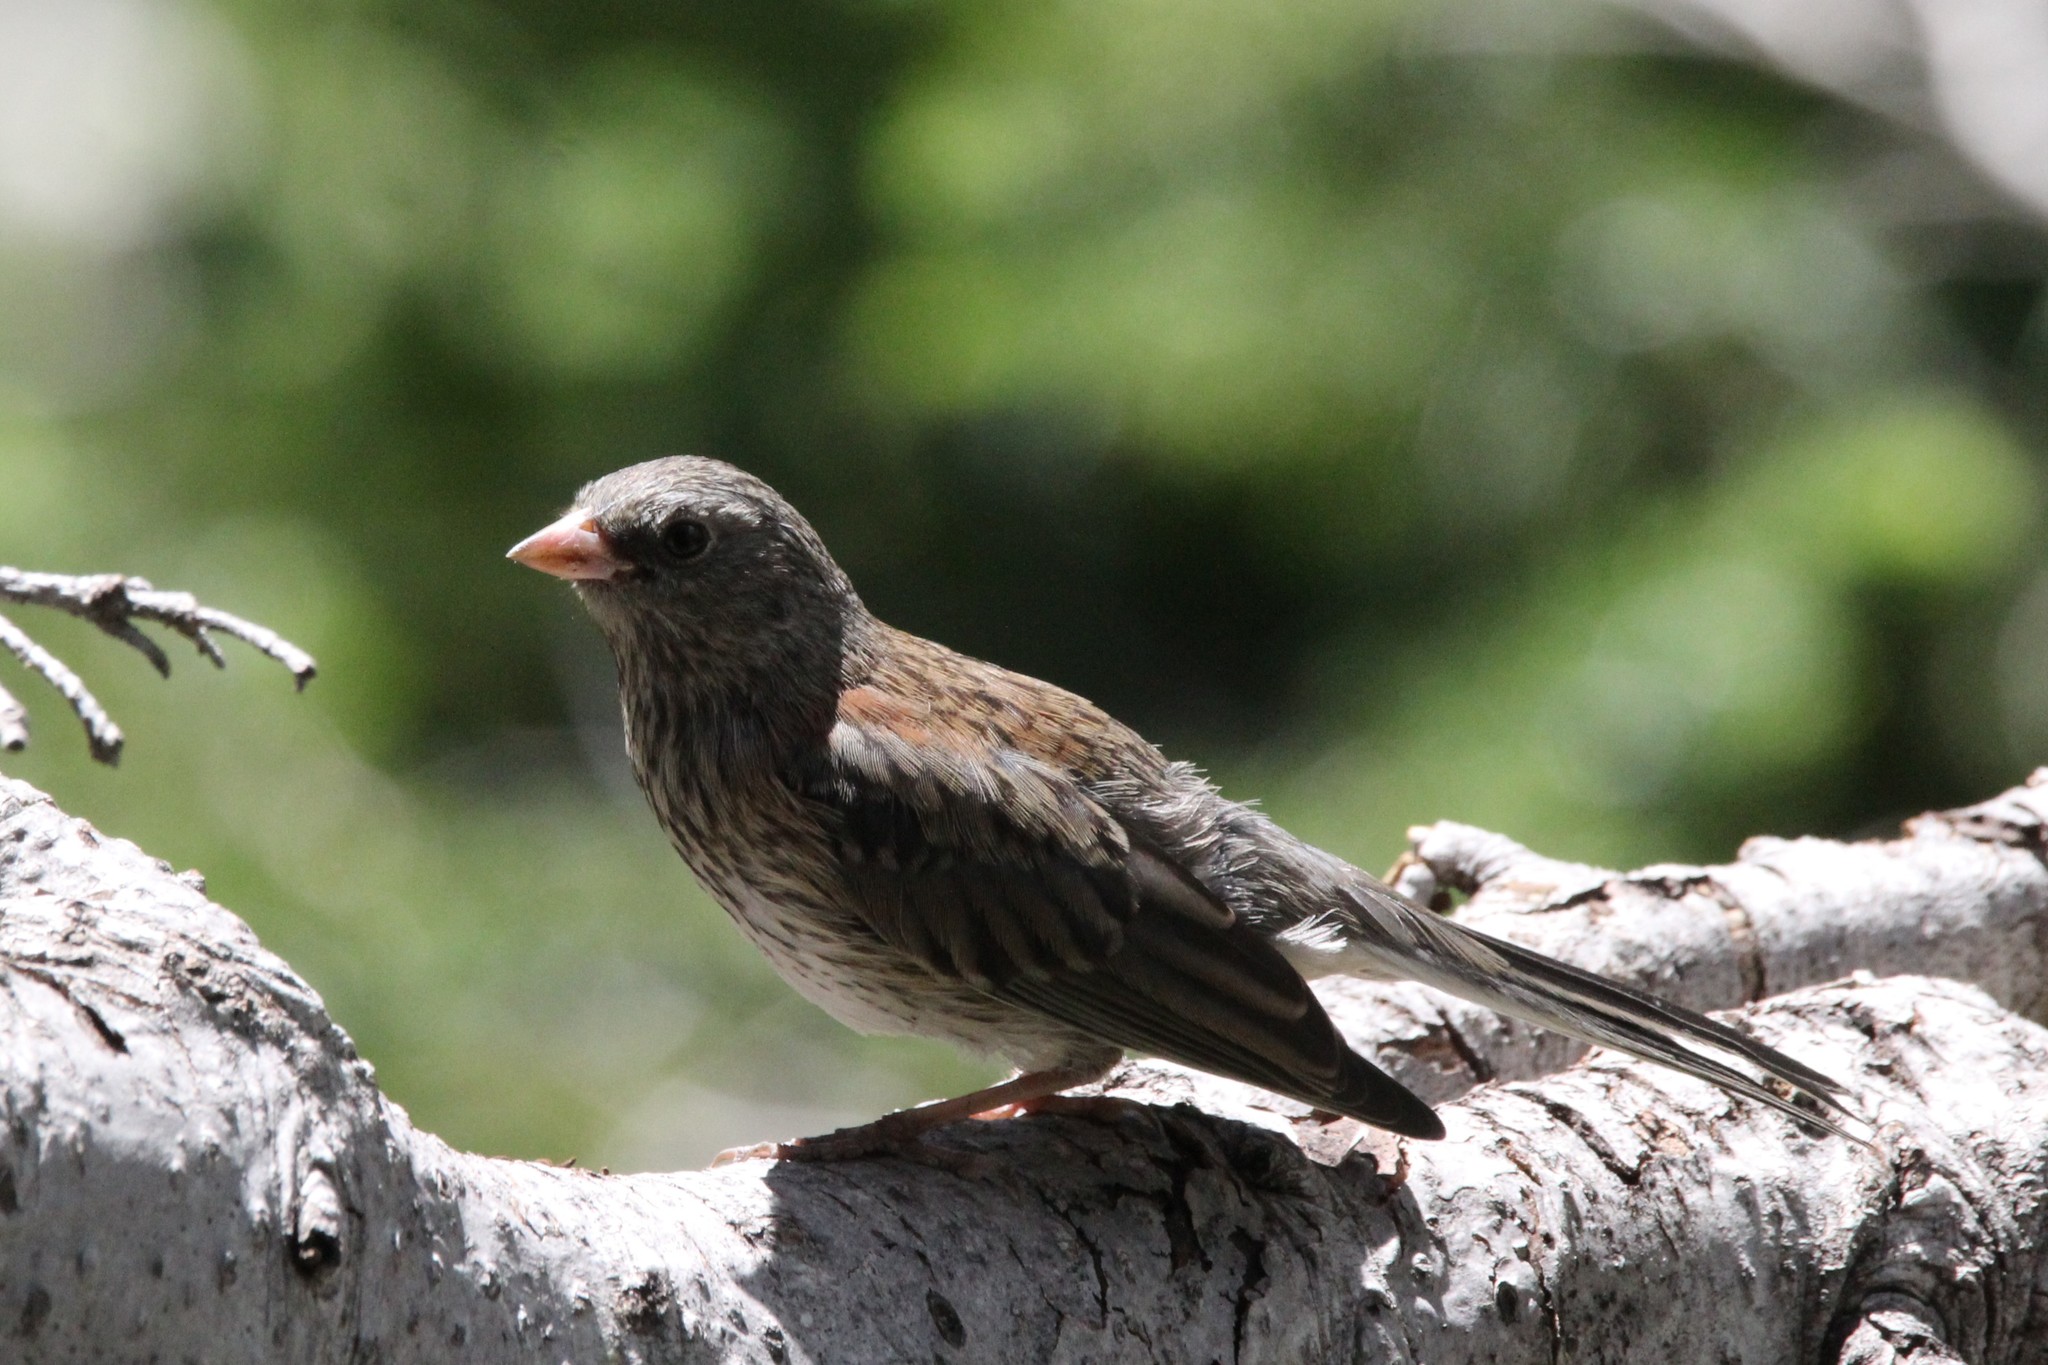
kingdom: Animalia
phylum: Chordata
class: Aves
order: Passeriformes
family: Passerellidae
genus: Junco
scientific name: Junco hyemalis
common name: Dark-eyed junco
